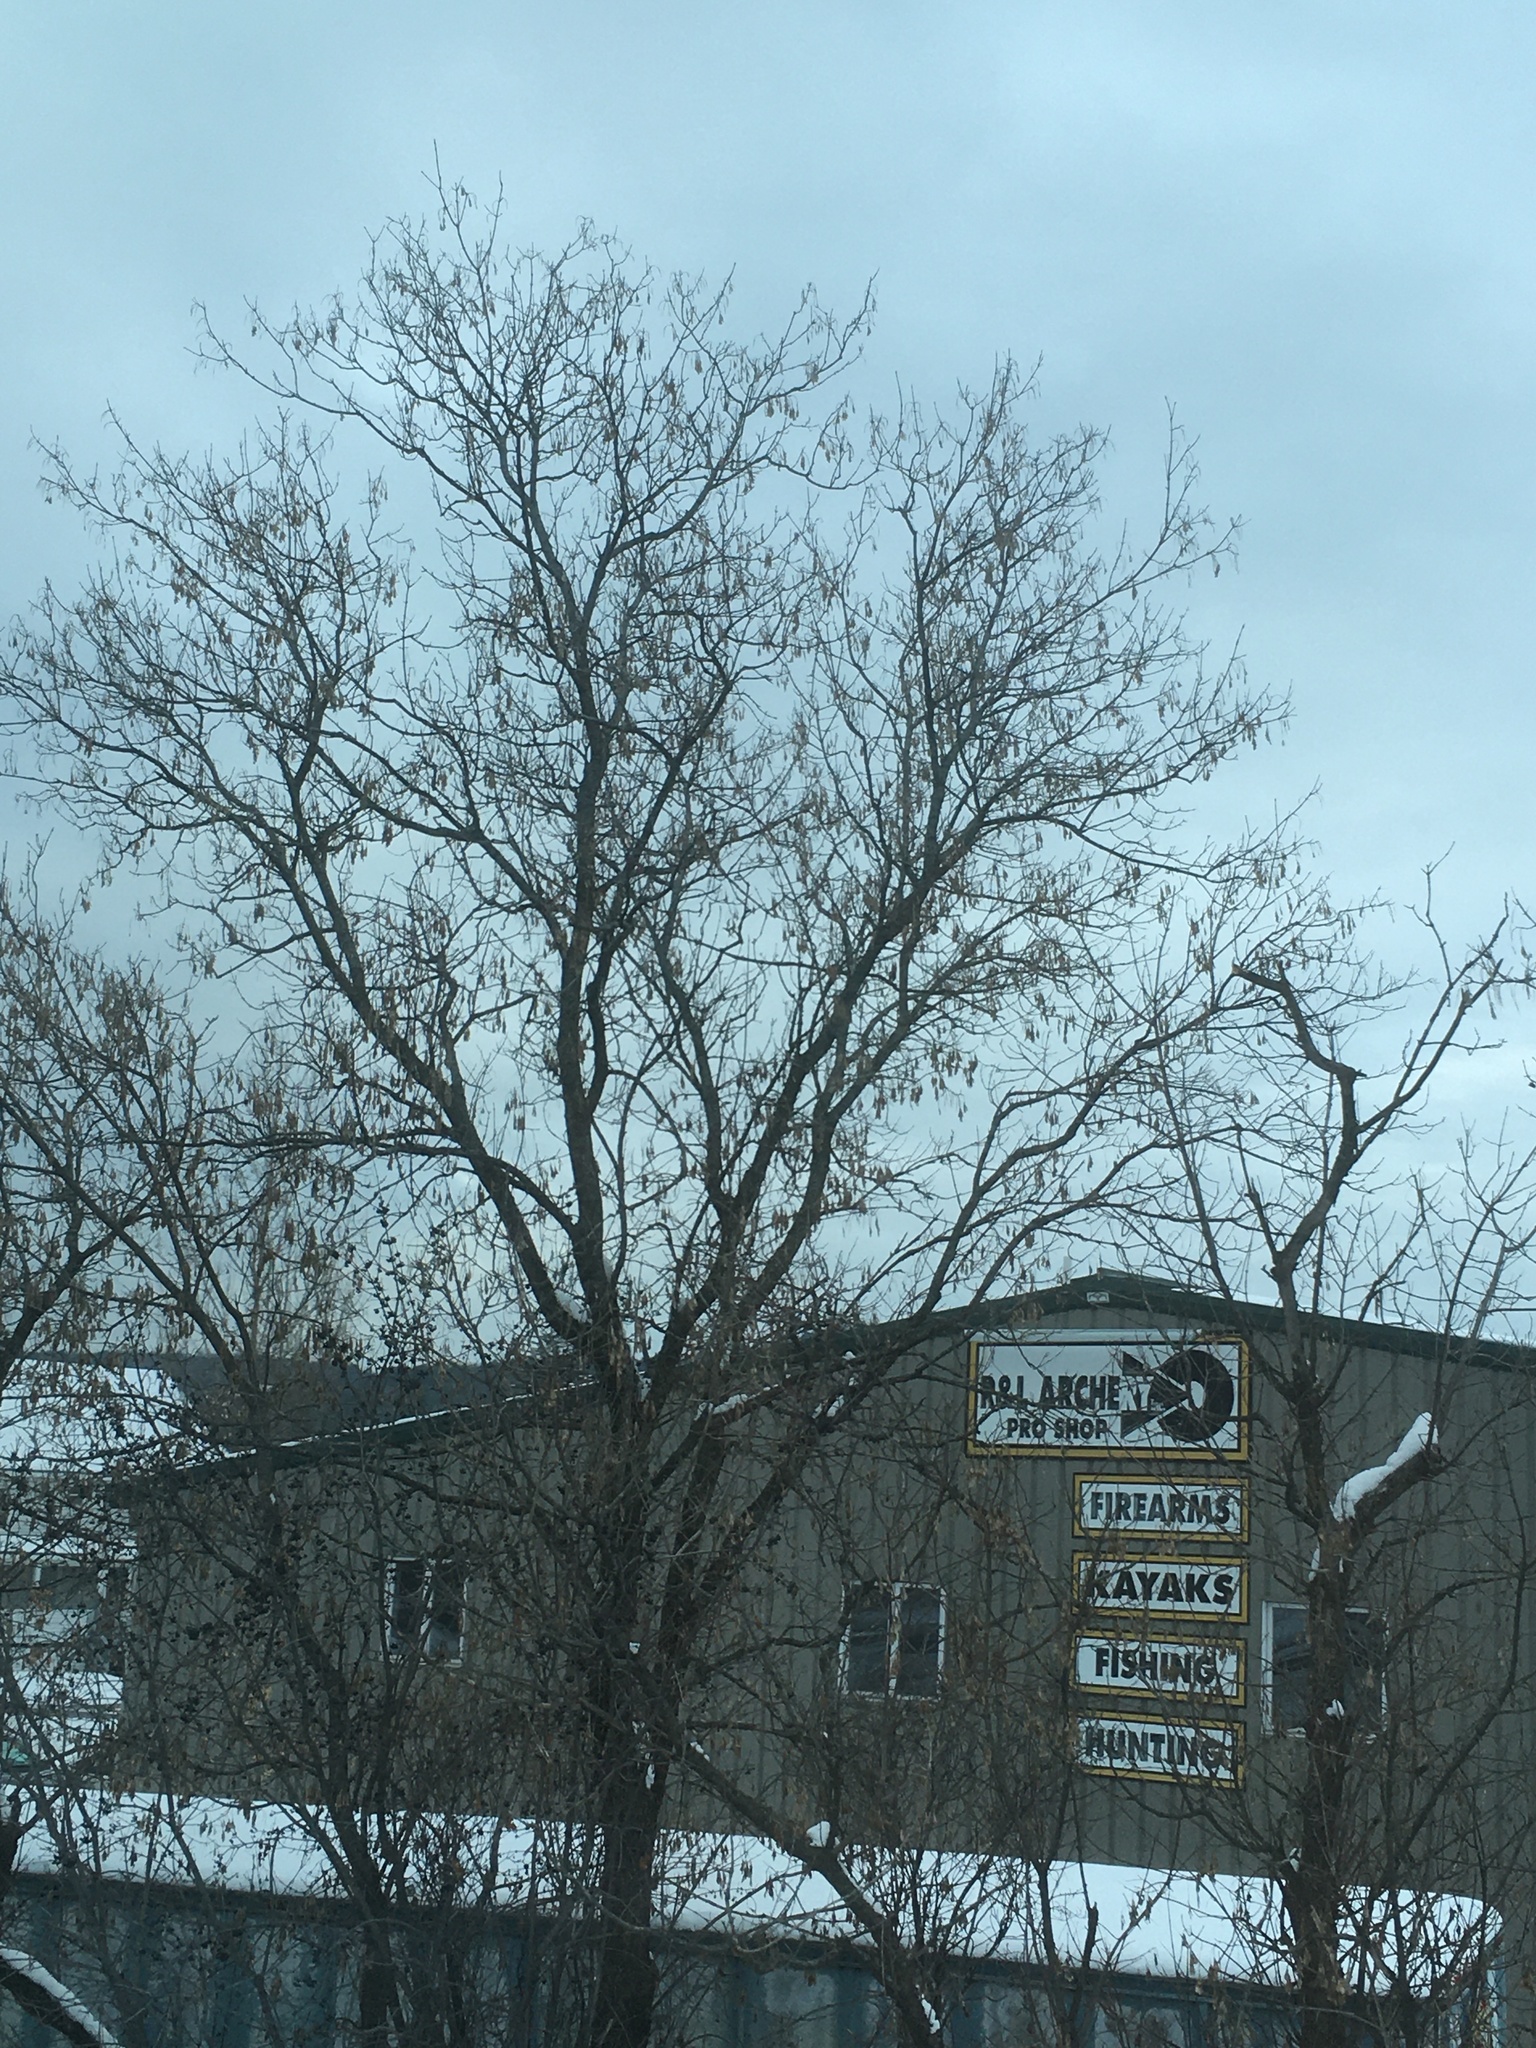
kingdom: Plantae
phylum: Tracheophyta
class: Magnoliopsida
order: Sapindales
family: Sapindaceae
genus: Acer
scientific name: Acer negundo
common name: Ashleaf maple
